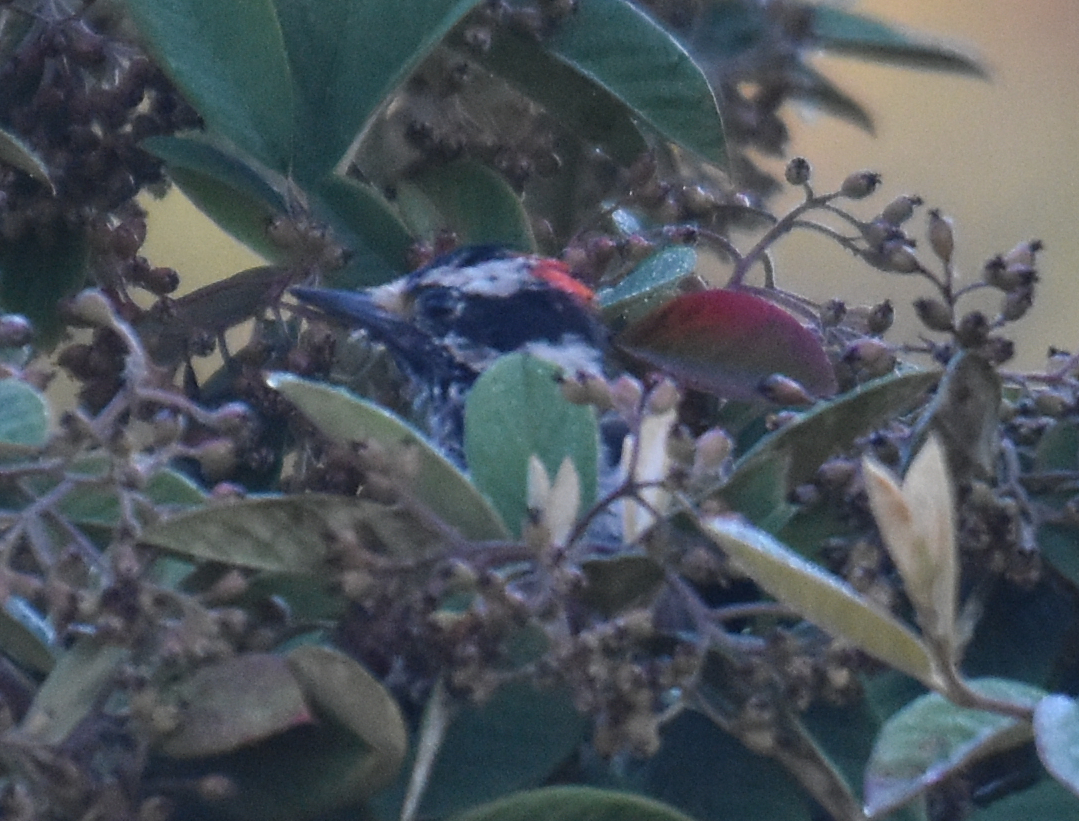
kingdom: Animalia
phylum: Chordata
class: Aves
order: Piciformes
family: Picidae
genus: Dryobates
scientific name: Dryobates pubescens
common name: Downy woodpecker
